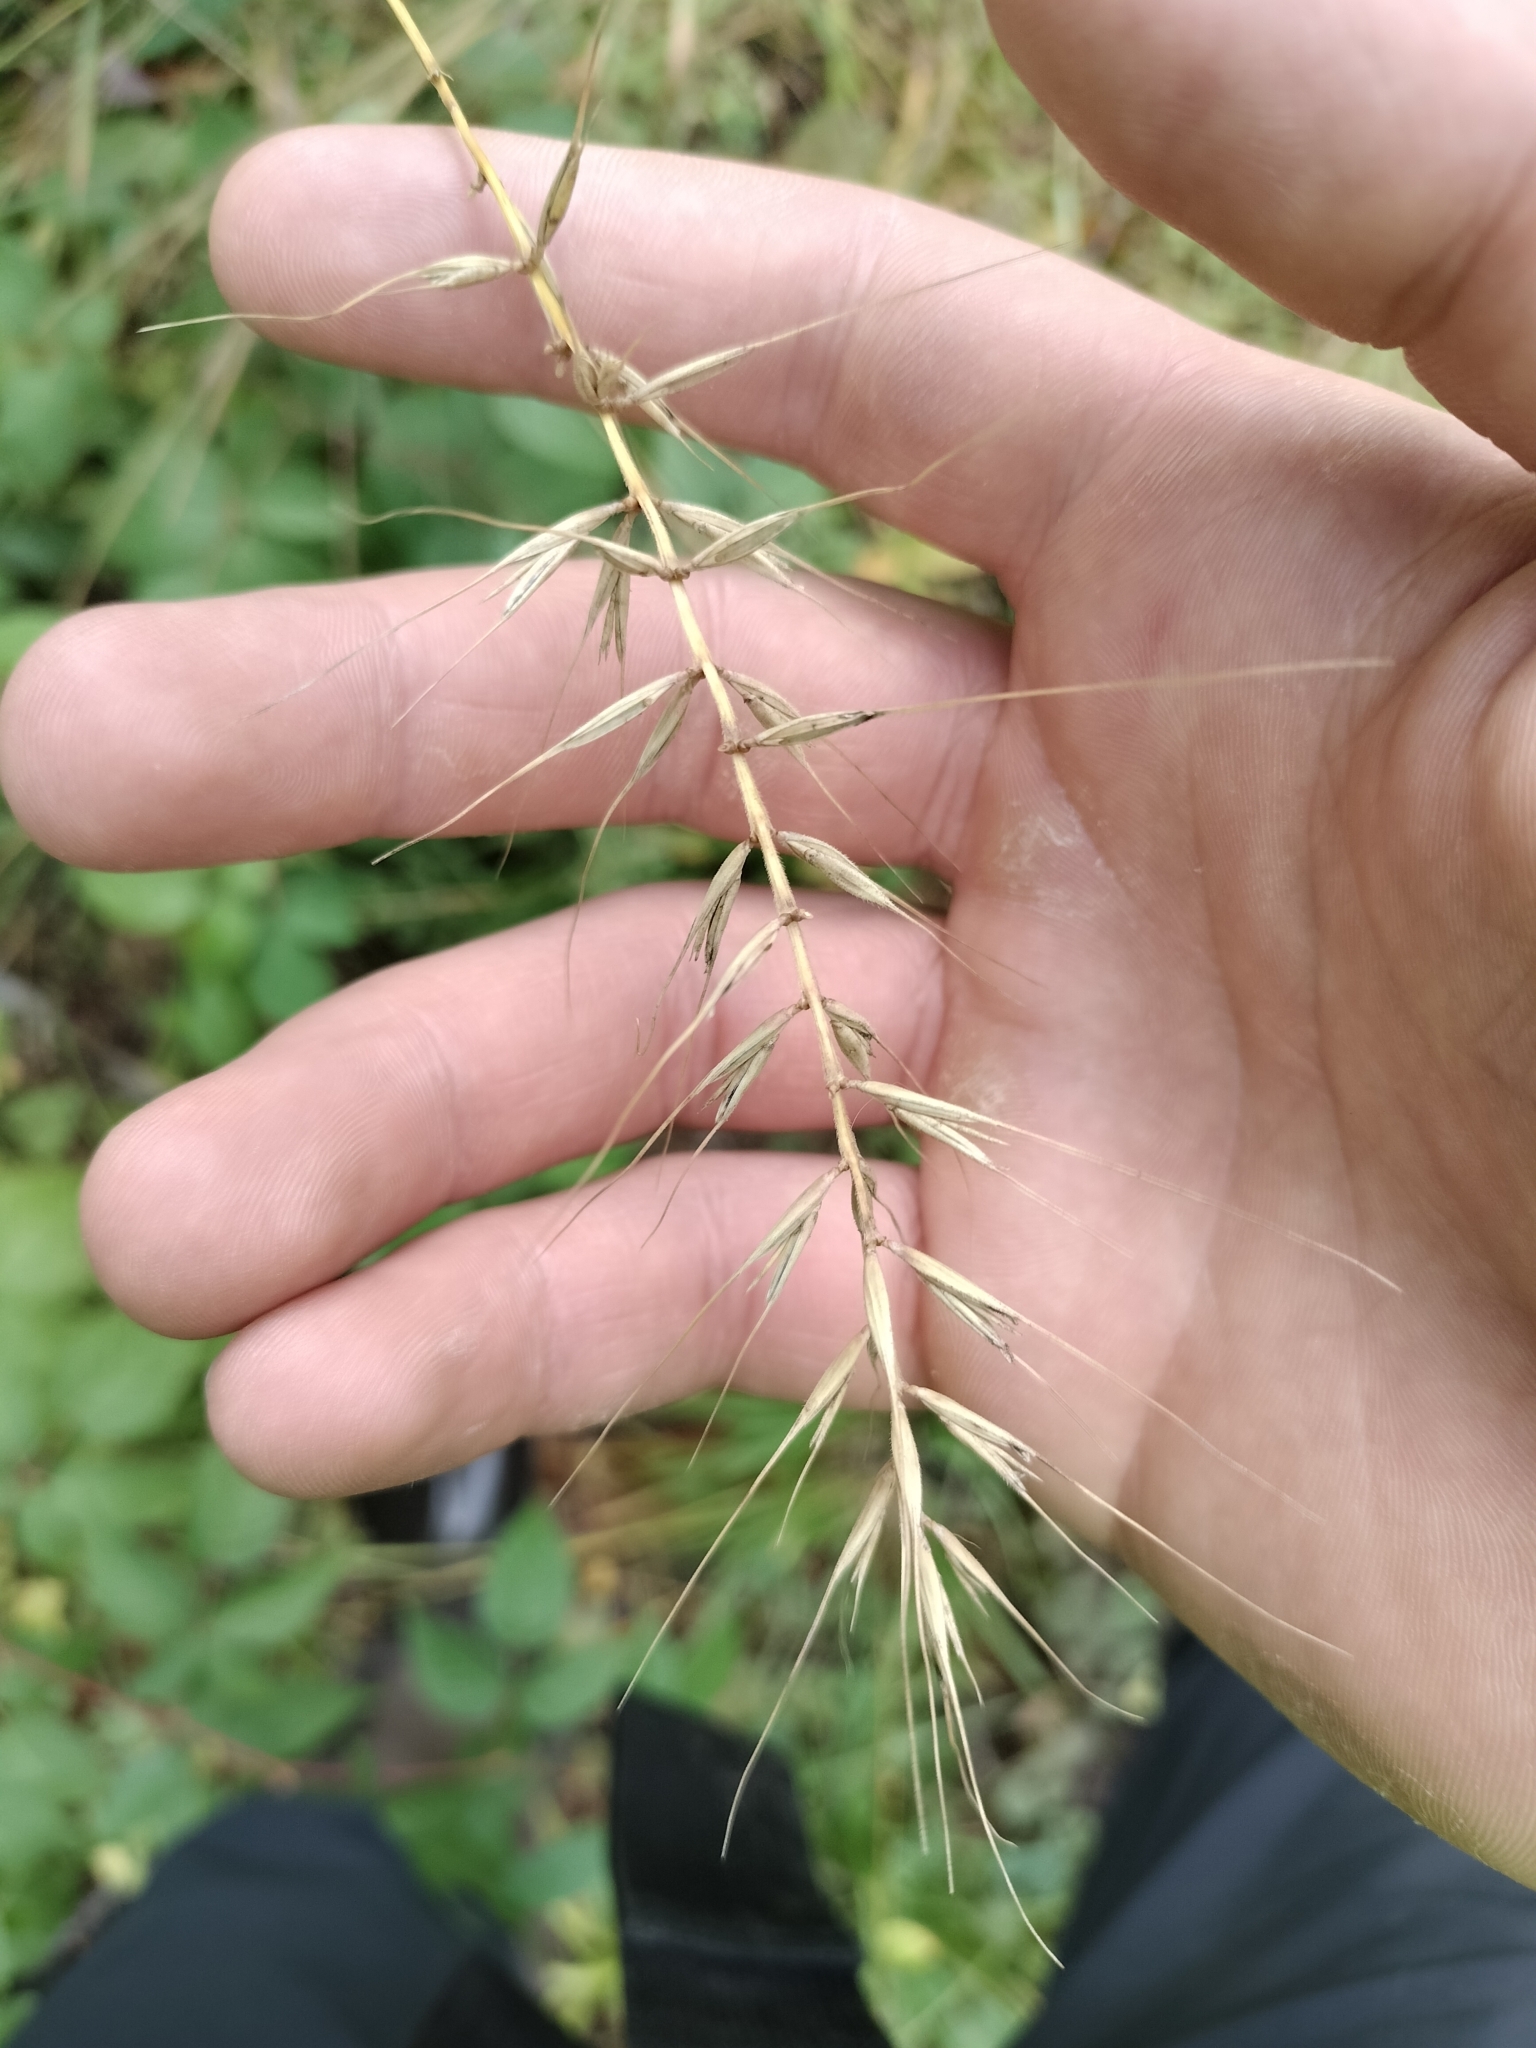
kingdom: Plantae
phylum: Tracheophyta
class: Liliopsida
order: Poales
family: Poaceae
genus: Elymus
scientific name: Elymus hystrix
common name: Bottlebrush grass
